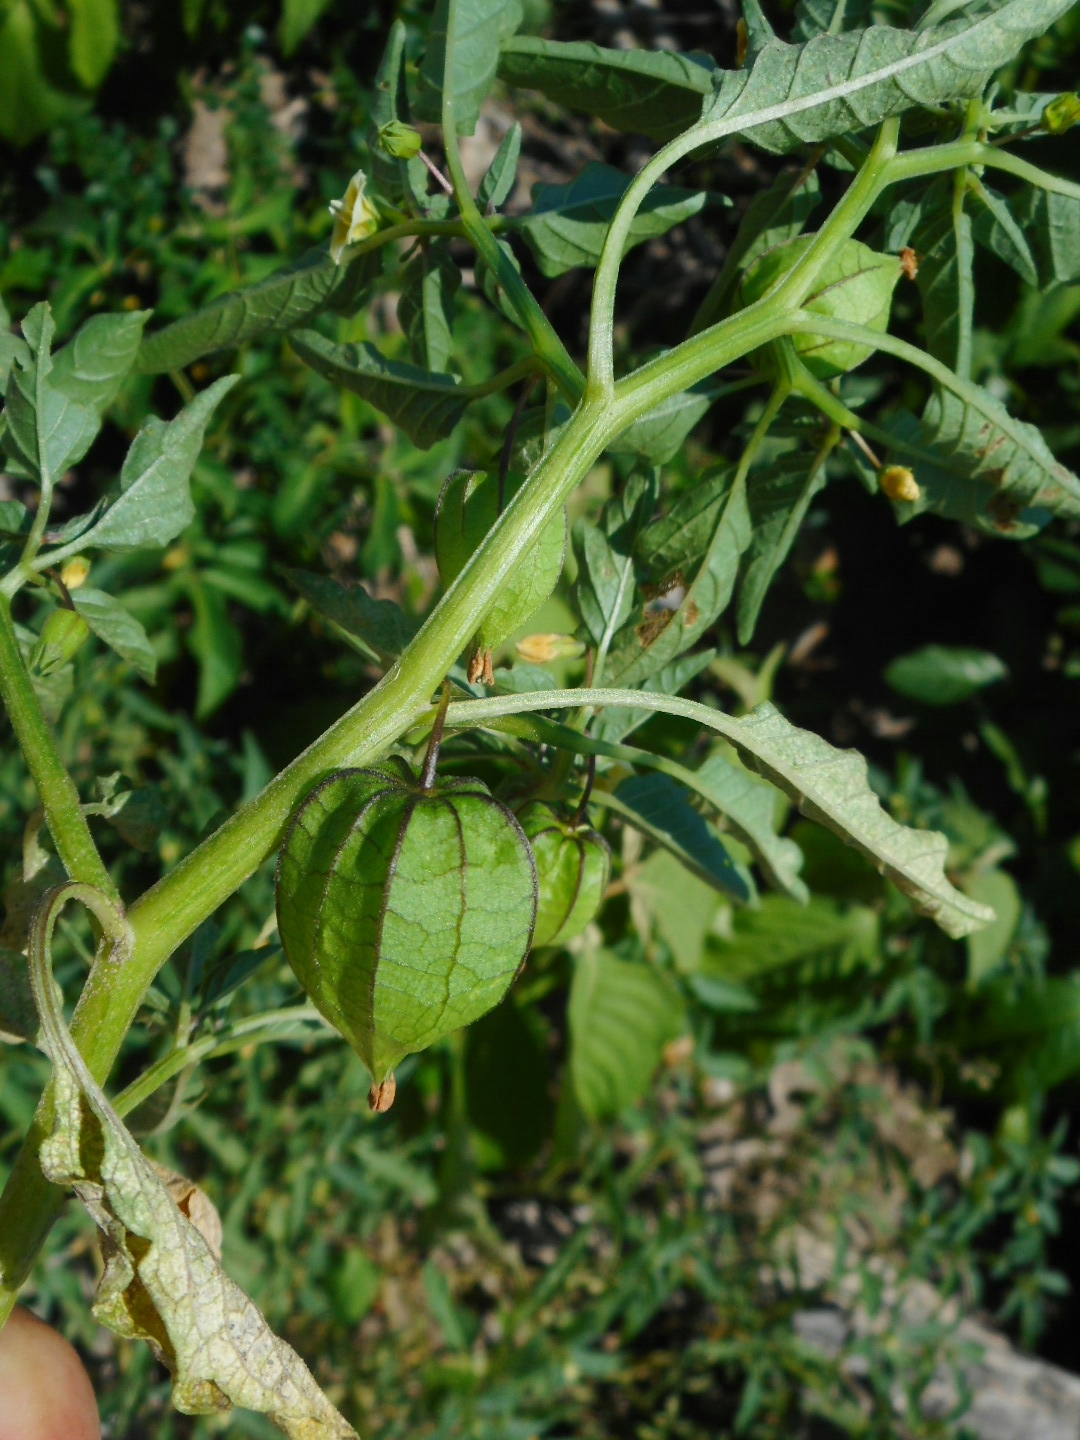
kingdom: Plantae
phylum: Tracheophyta
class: Magnoliopsida
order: Solanales
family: Solanaceae
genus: Physalis
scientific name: Physalis angulata
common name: Angular winter-cherry
